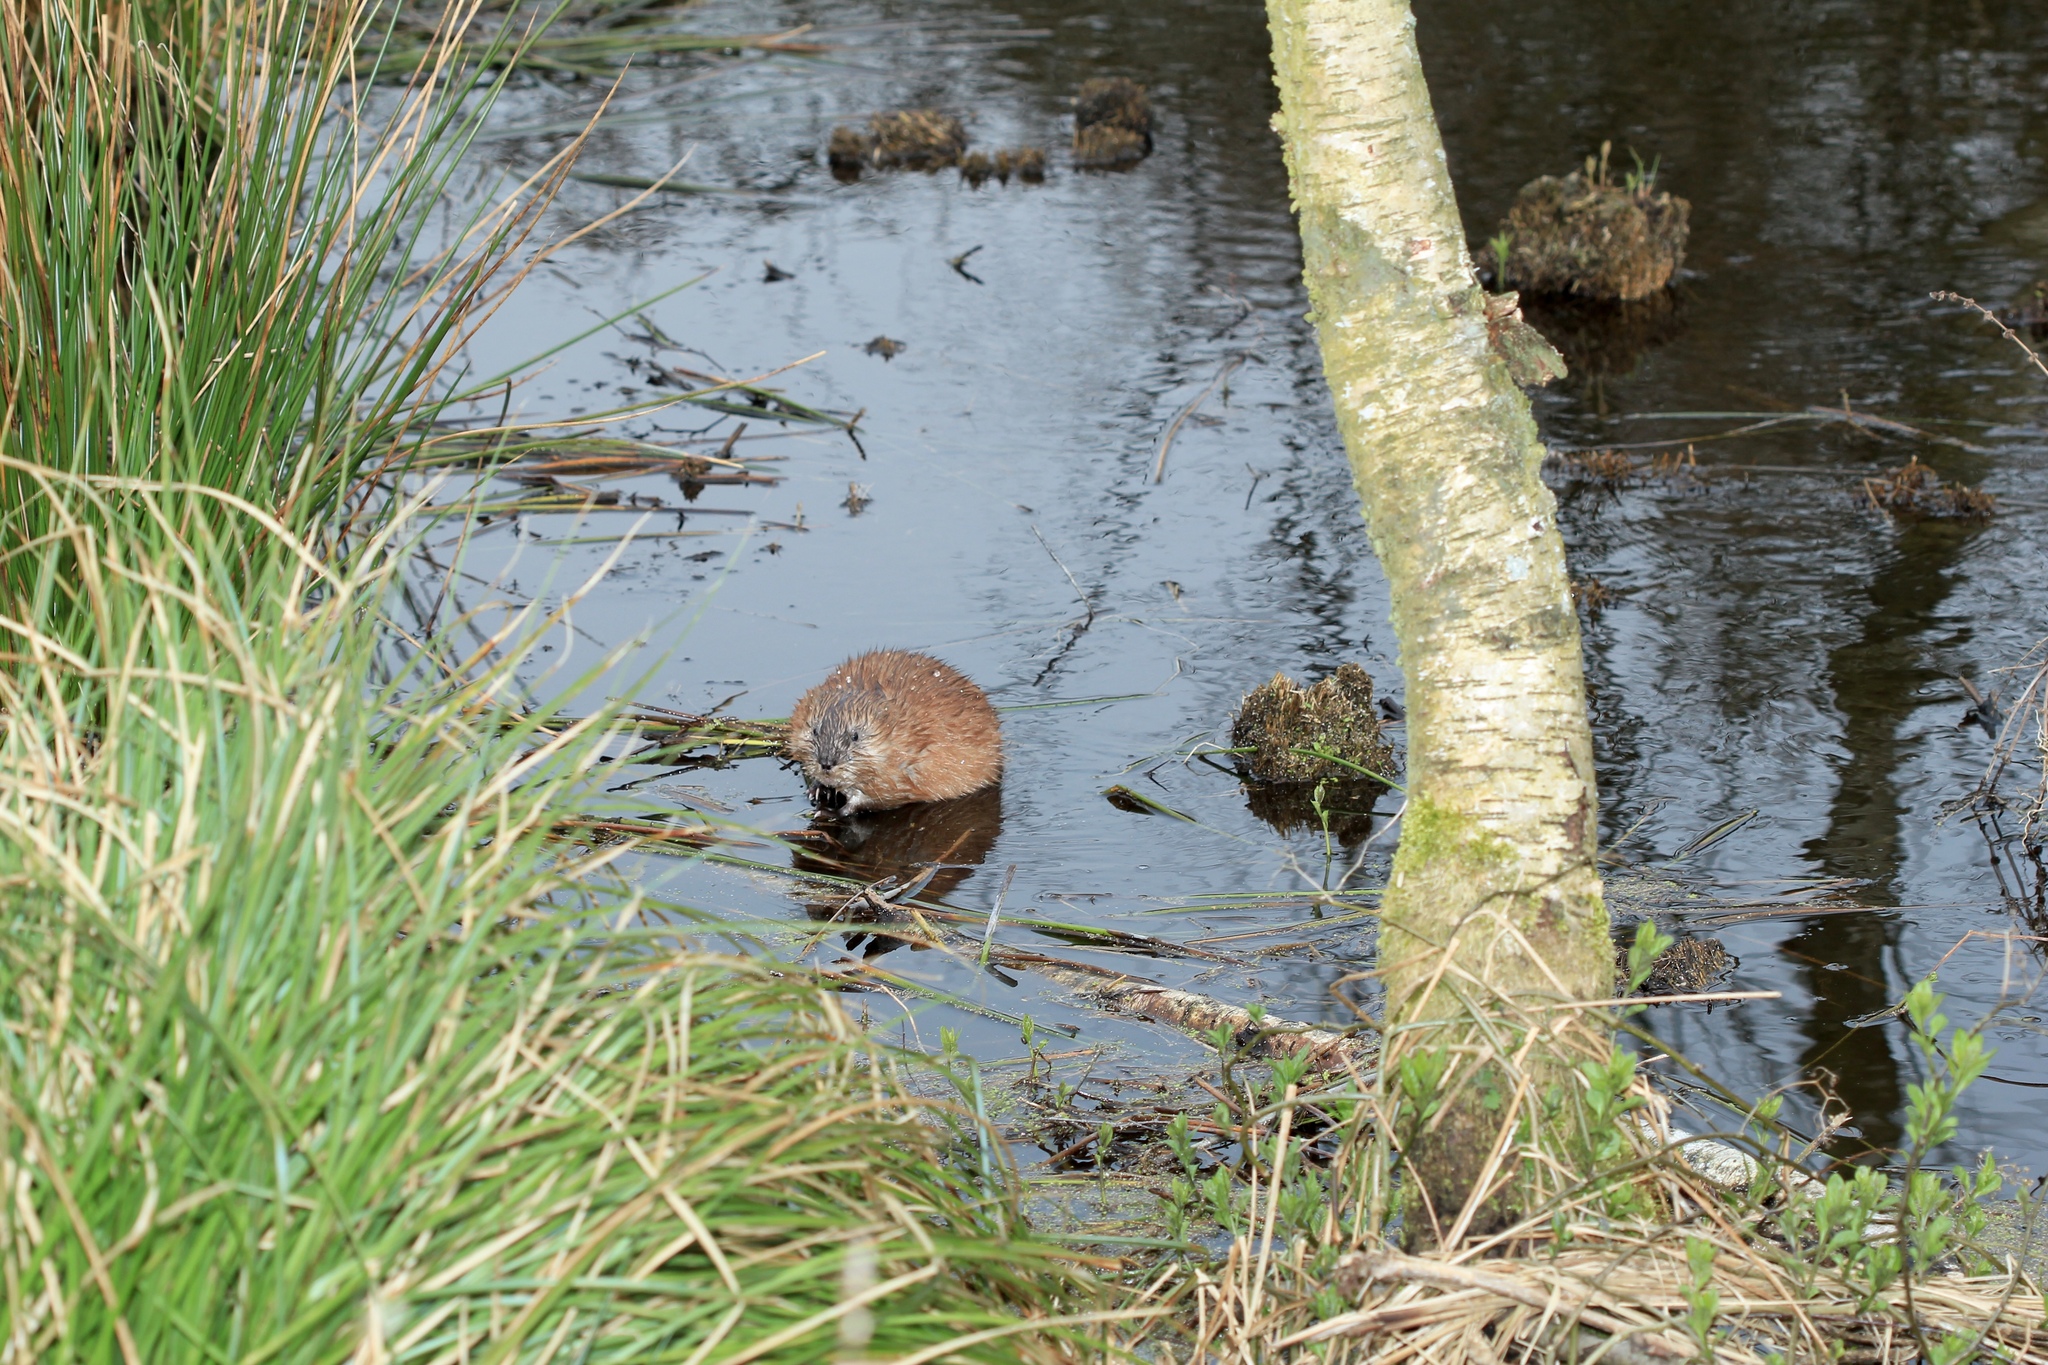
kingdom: Animalia
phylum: Chordata
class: Mammalia
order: Rodentia
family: Cricetidae
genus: Ondatra
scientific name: Ondatra zibethicus
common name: Muskrat
